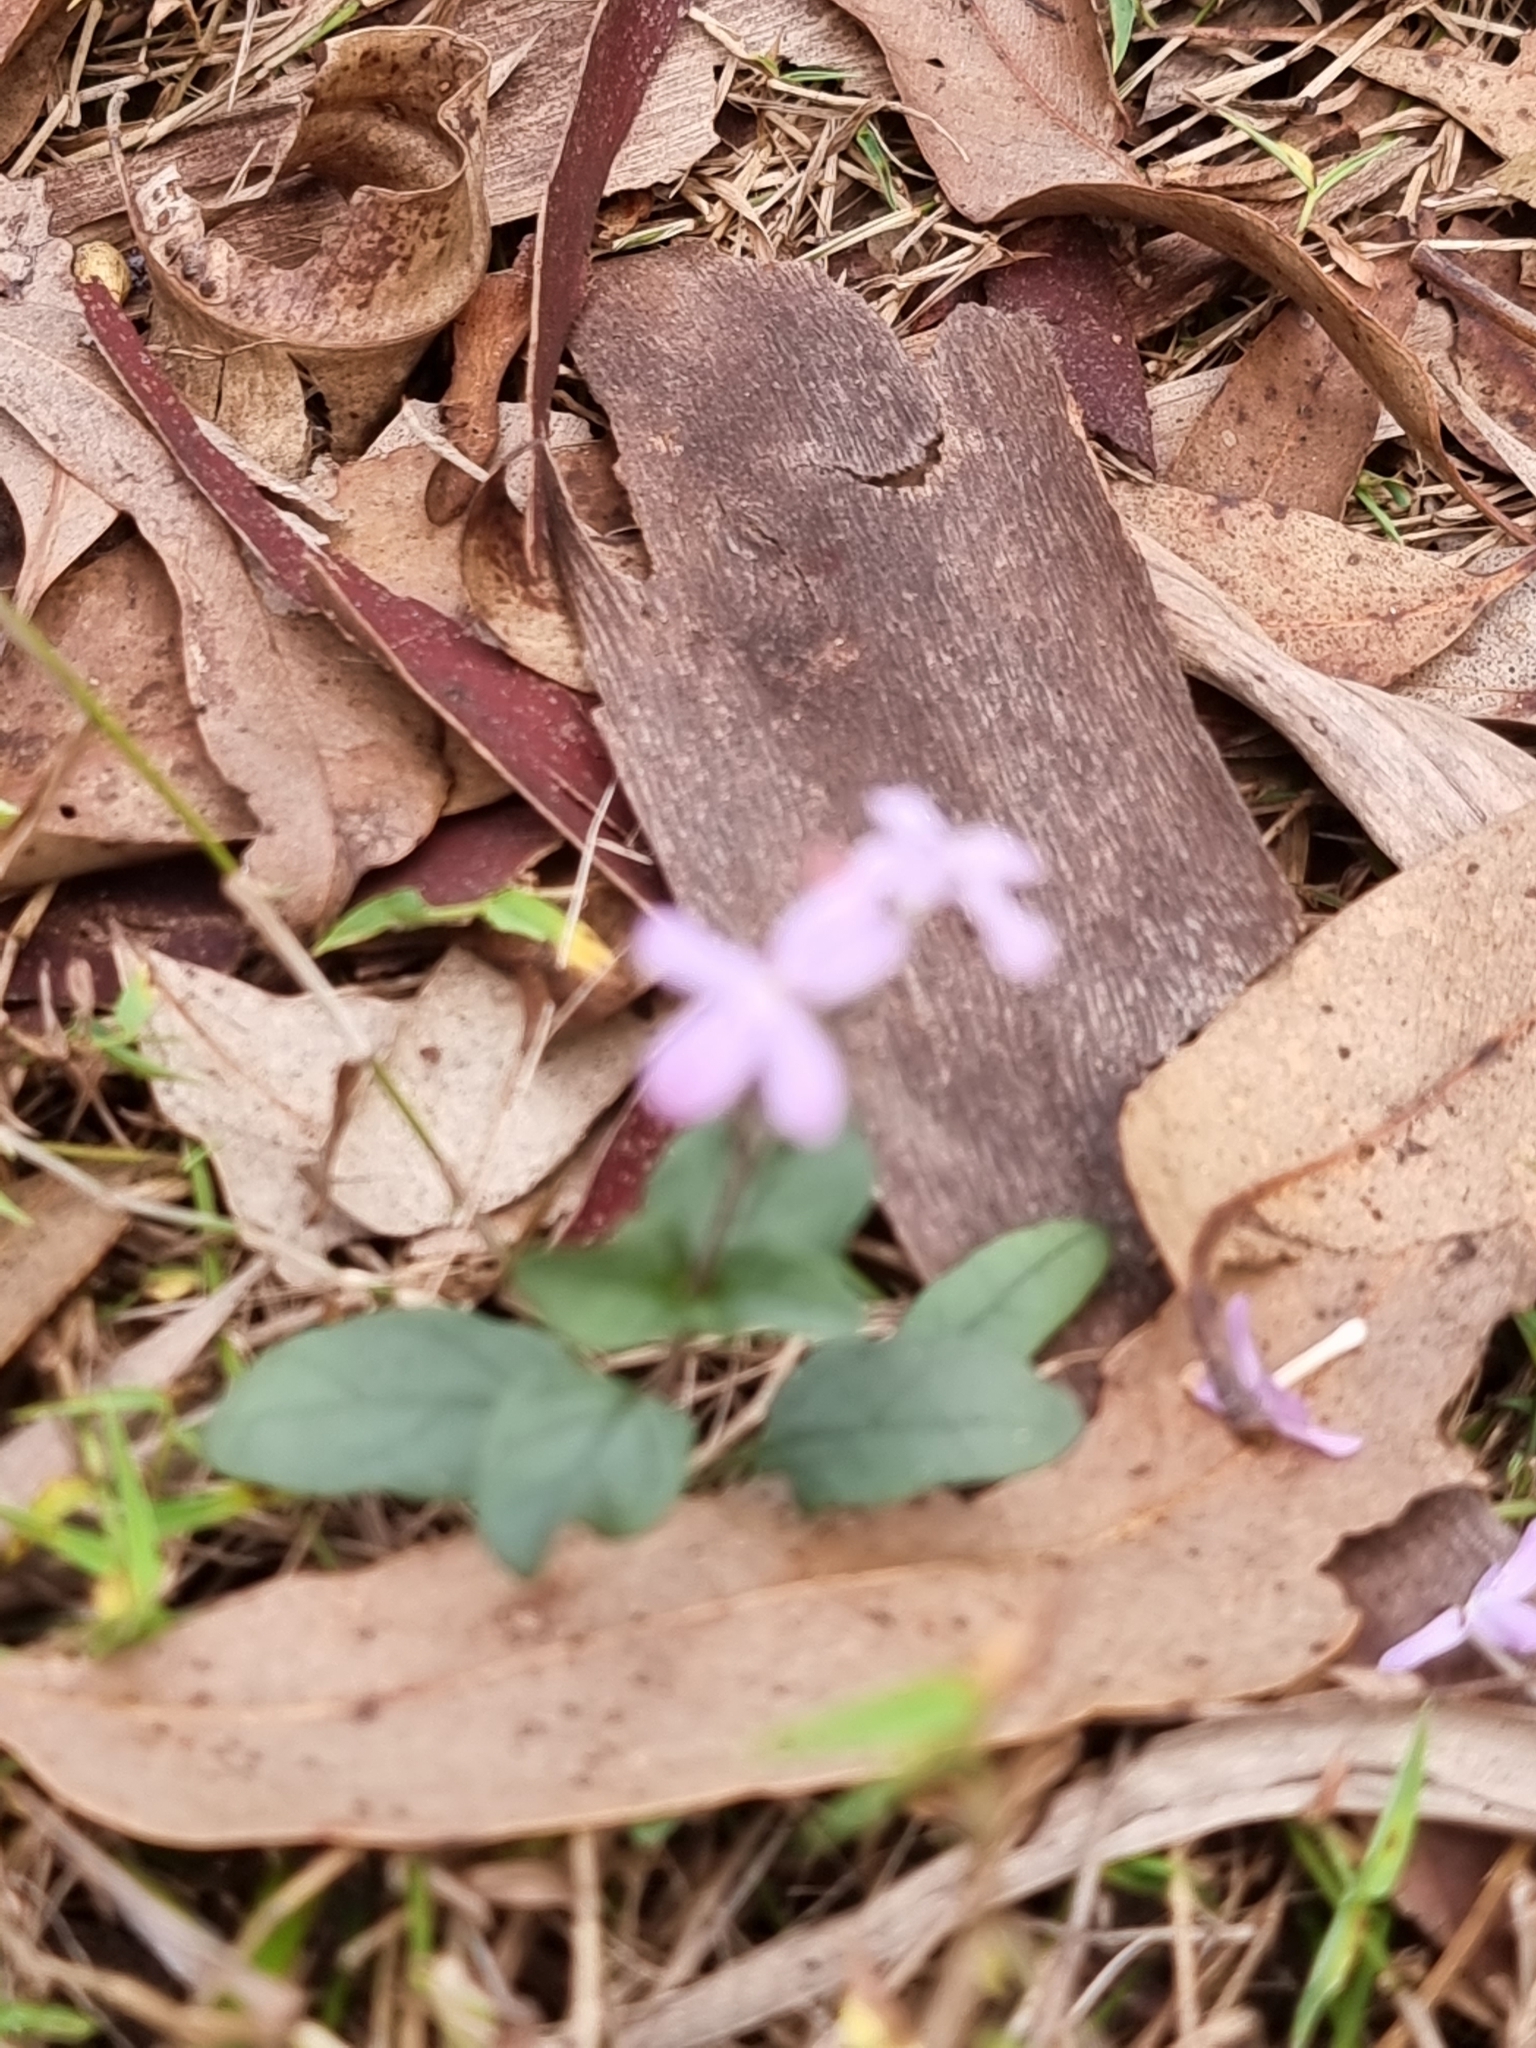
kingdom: Plantae
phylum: Tracheophyta
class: Magnoliopsida
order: Lamiales
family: Acanthaceae
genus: Pseuderanthemum
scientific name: Pseuderanthemum variabile
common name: Night and afternoon
